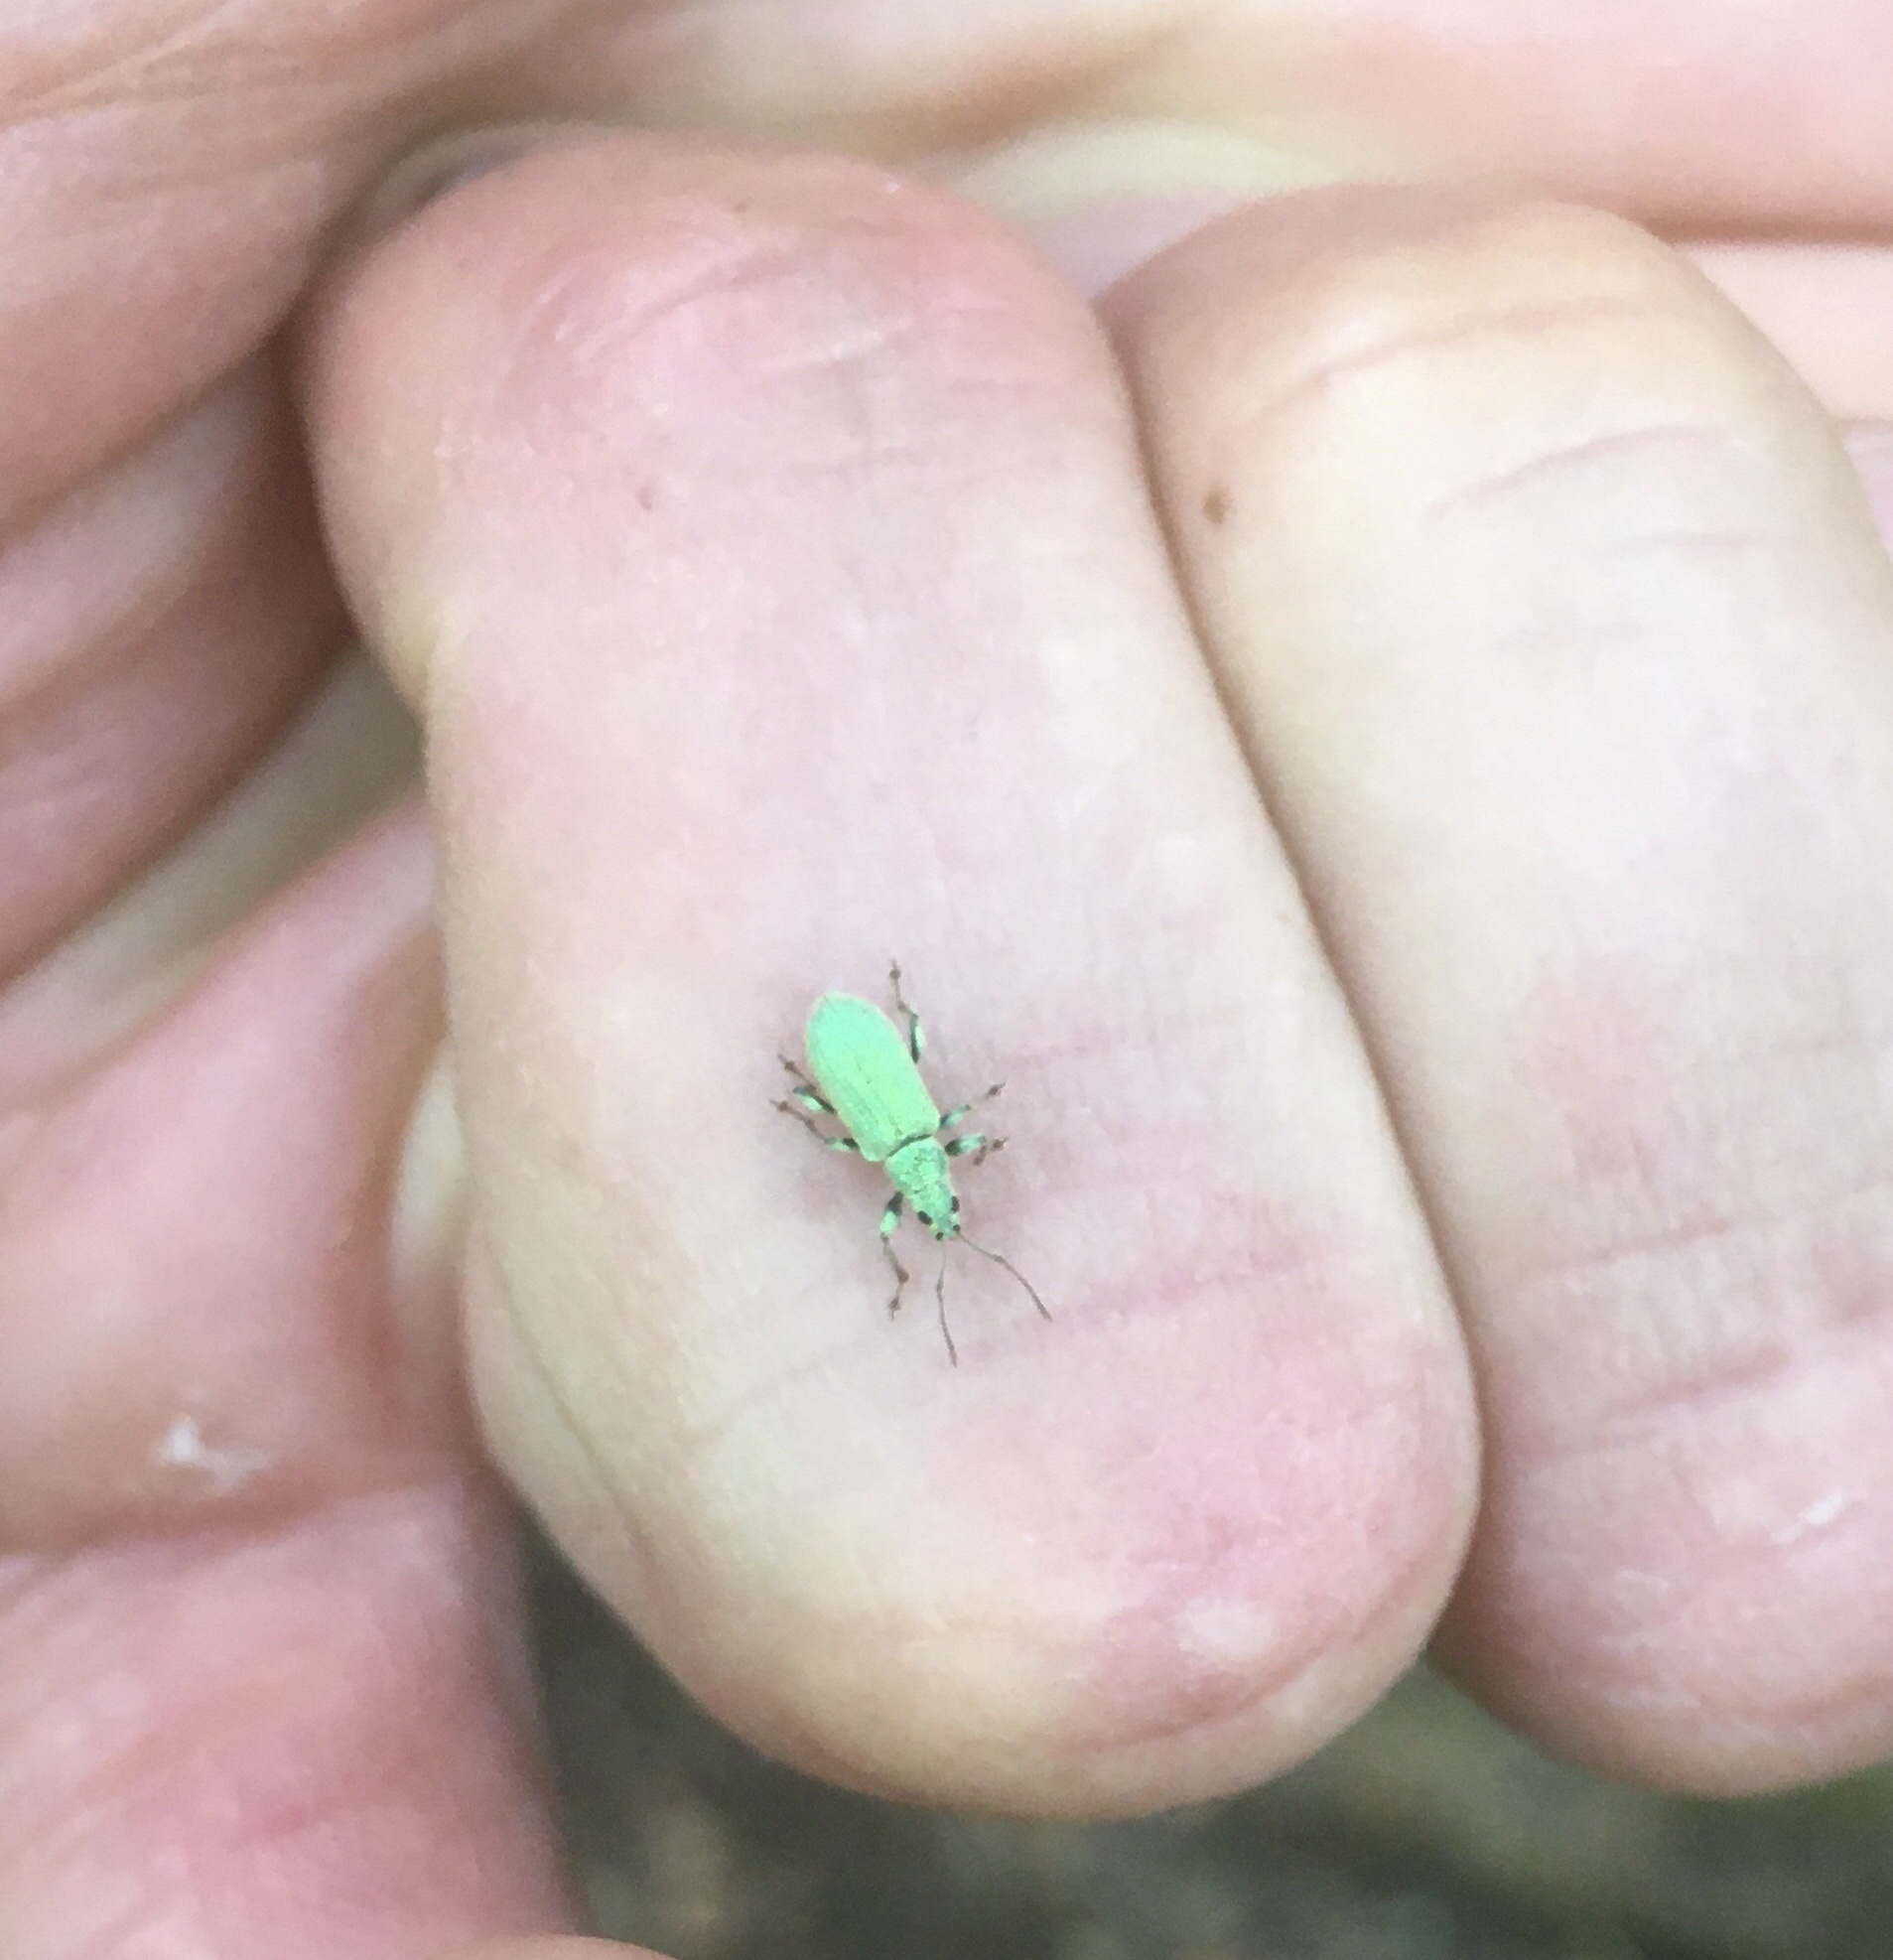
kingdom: Animalia
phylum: Arthropoda
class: Insecta
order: Coleoptera
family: Curculionidae
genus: Phyllobius
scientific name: Phyllobius argentatus
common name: Silver-green leaf weevil
